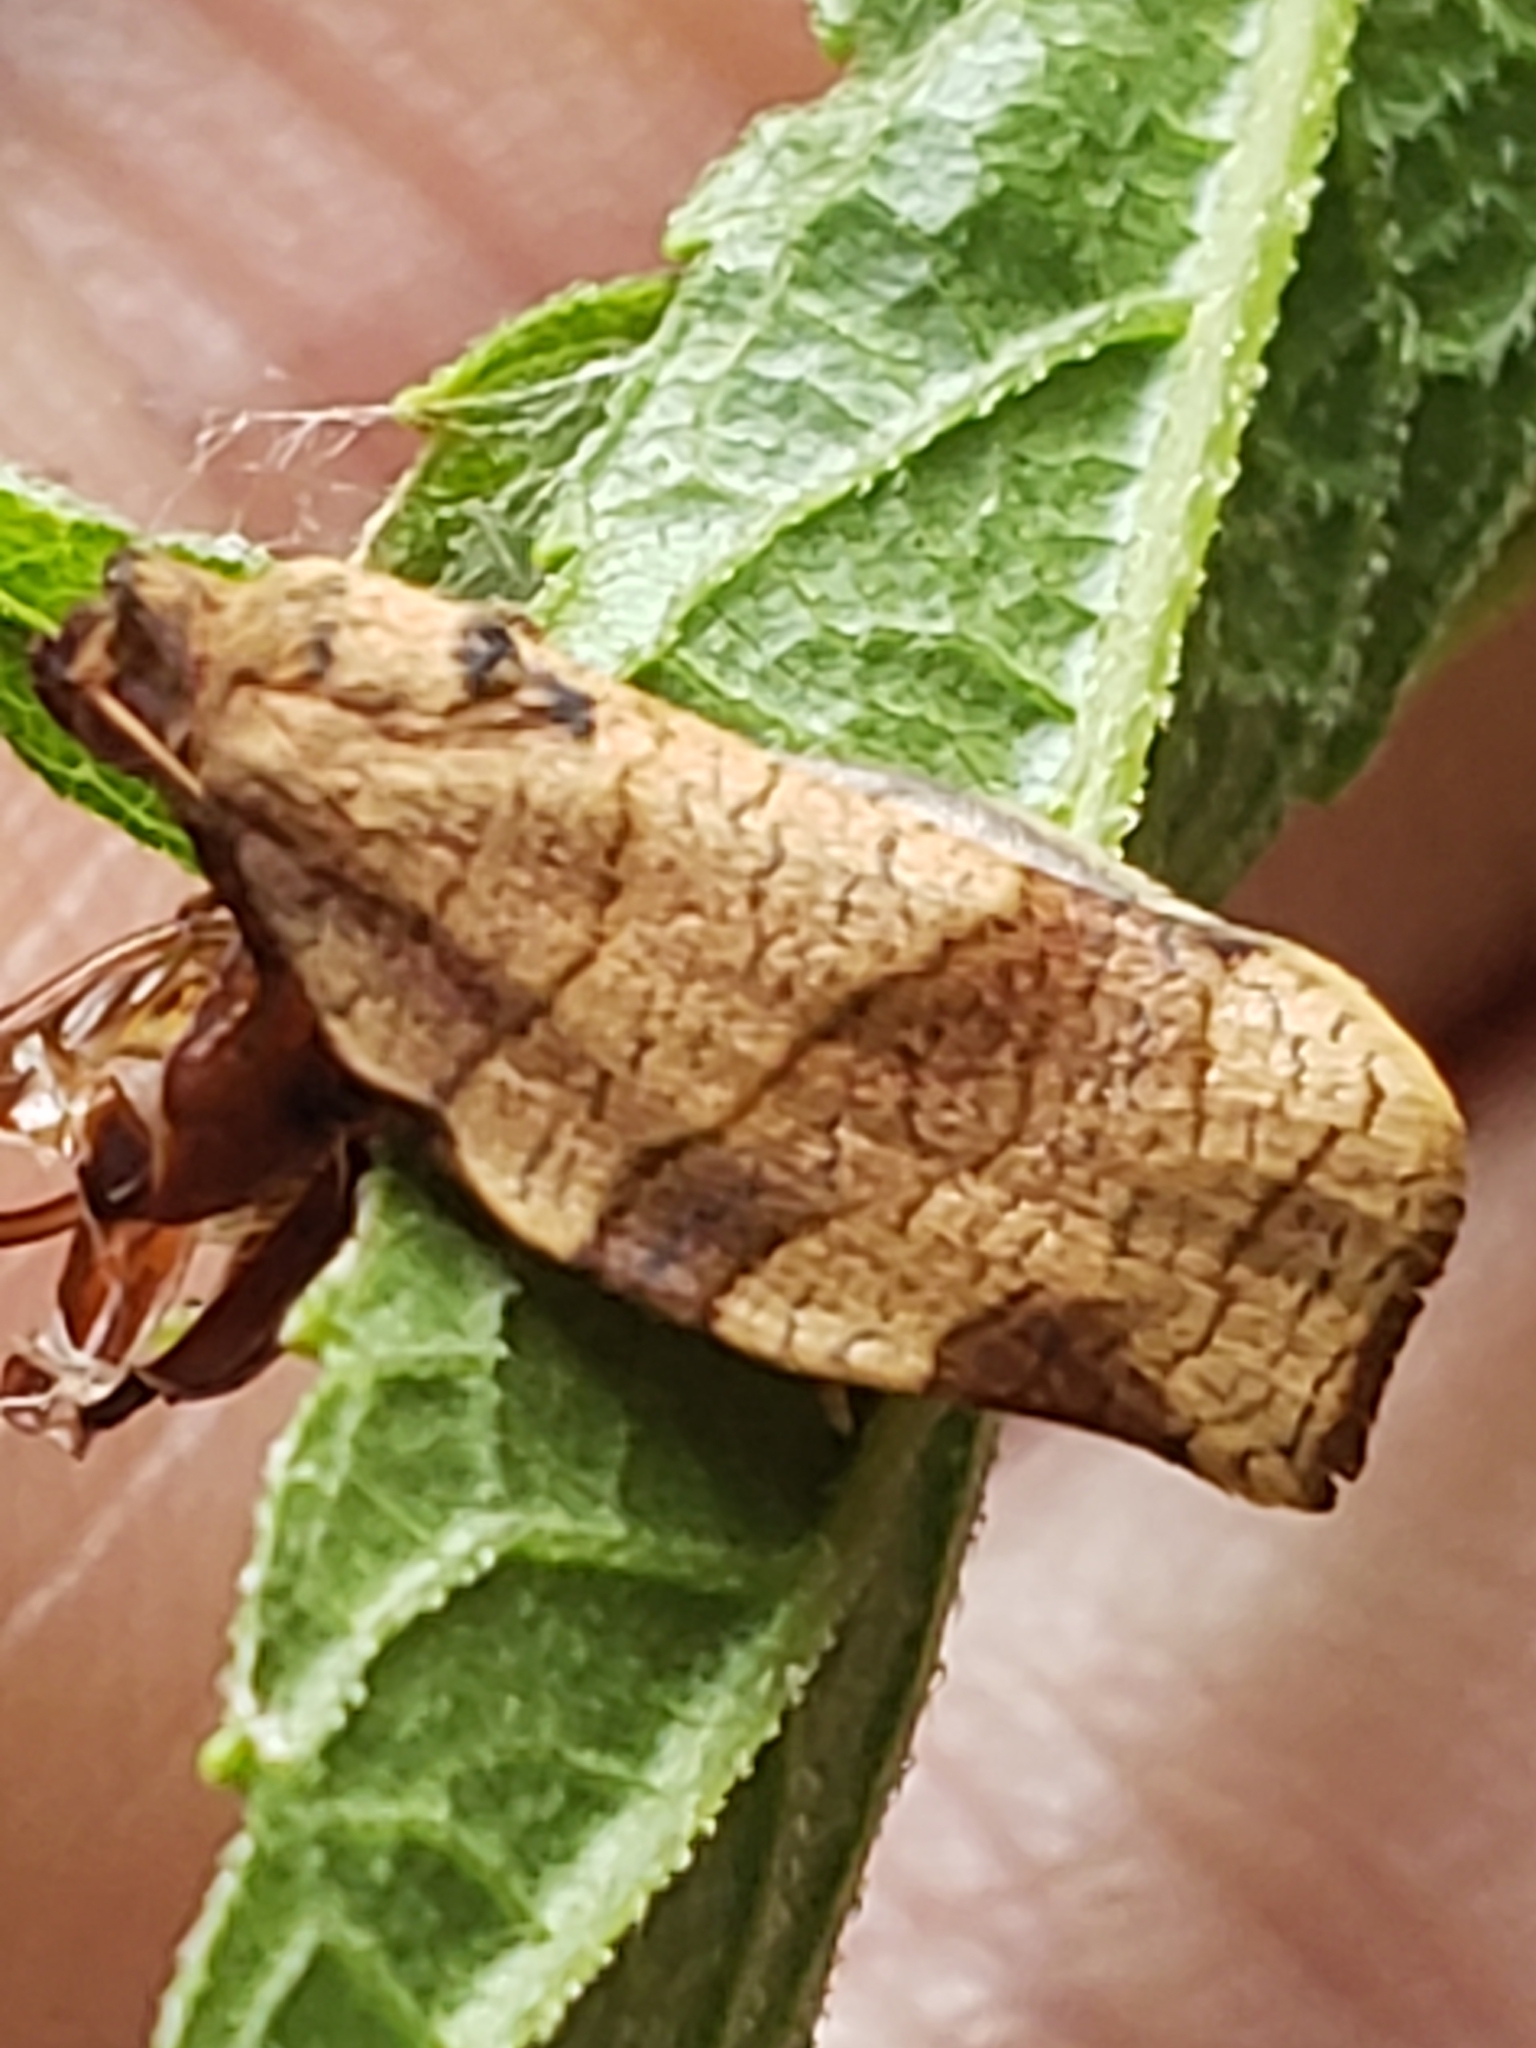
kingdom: Animalia
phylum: Arthropoda
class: Insecta
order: Lepidoptera
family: Tortricidae
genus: Choristoneura
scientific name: Choristoneura parallela
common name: Parallel-banded leafroller moth
